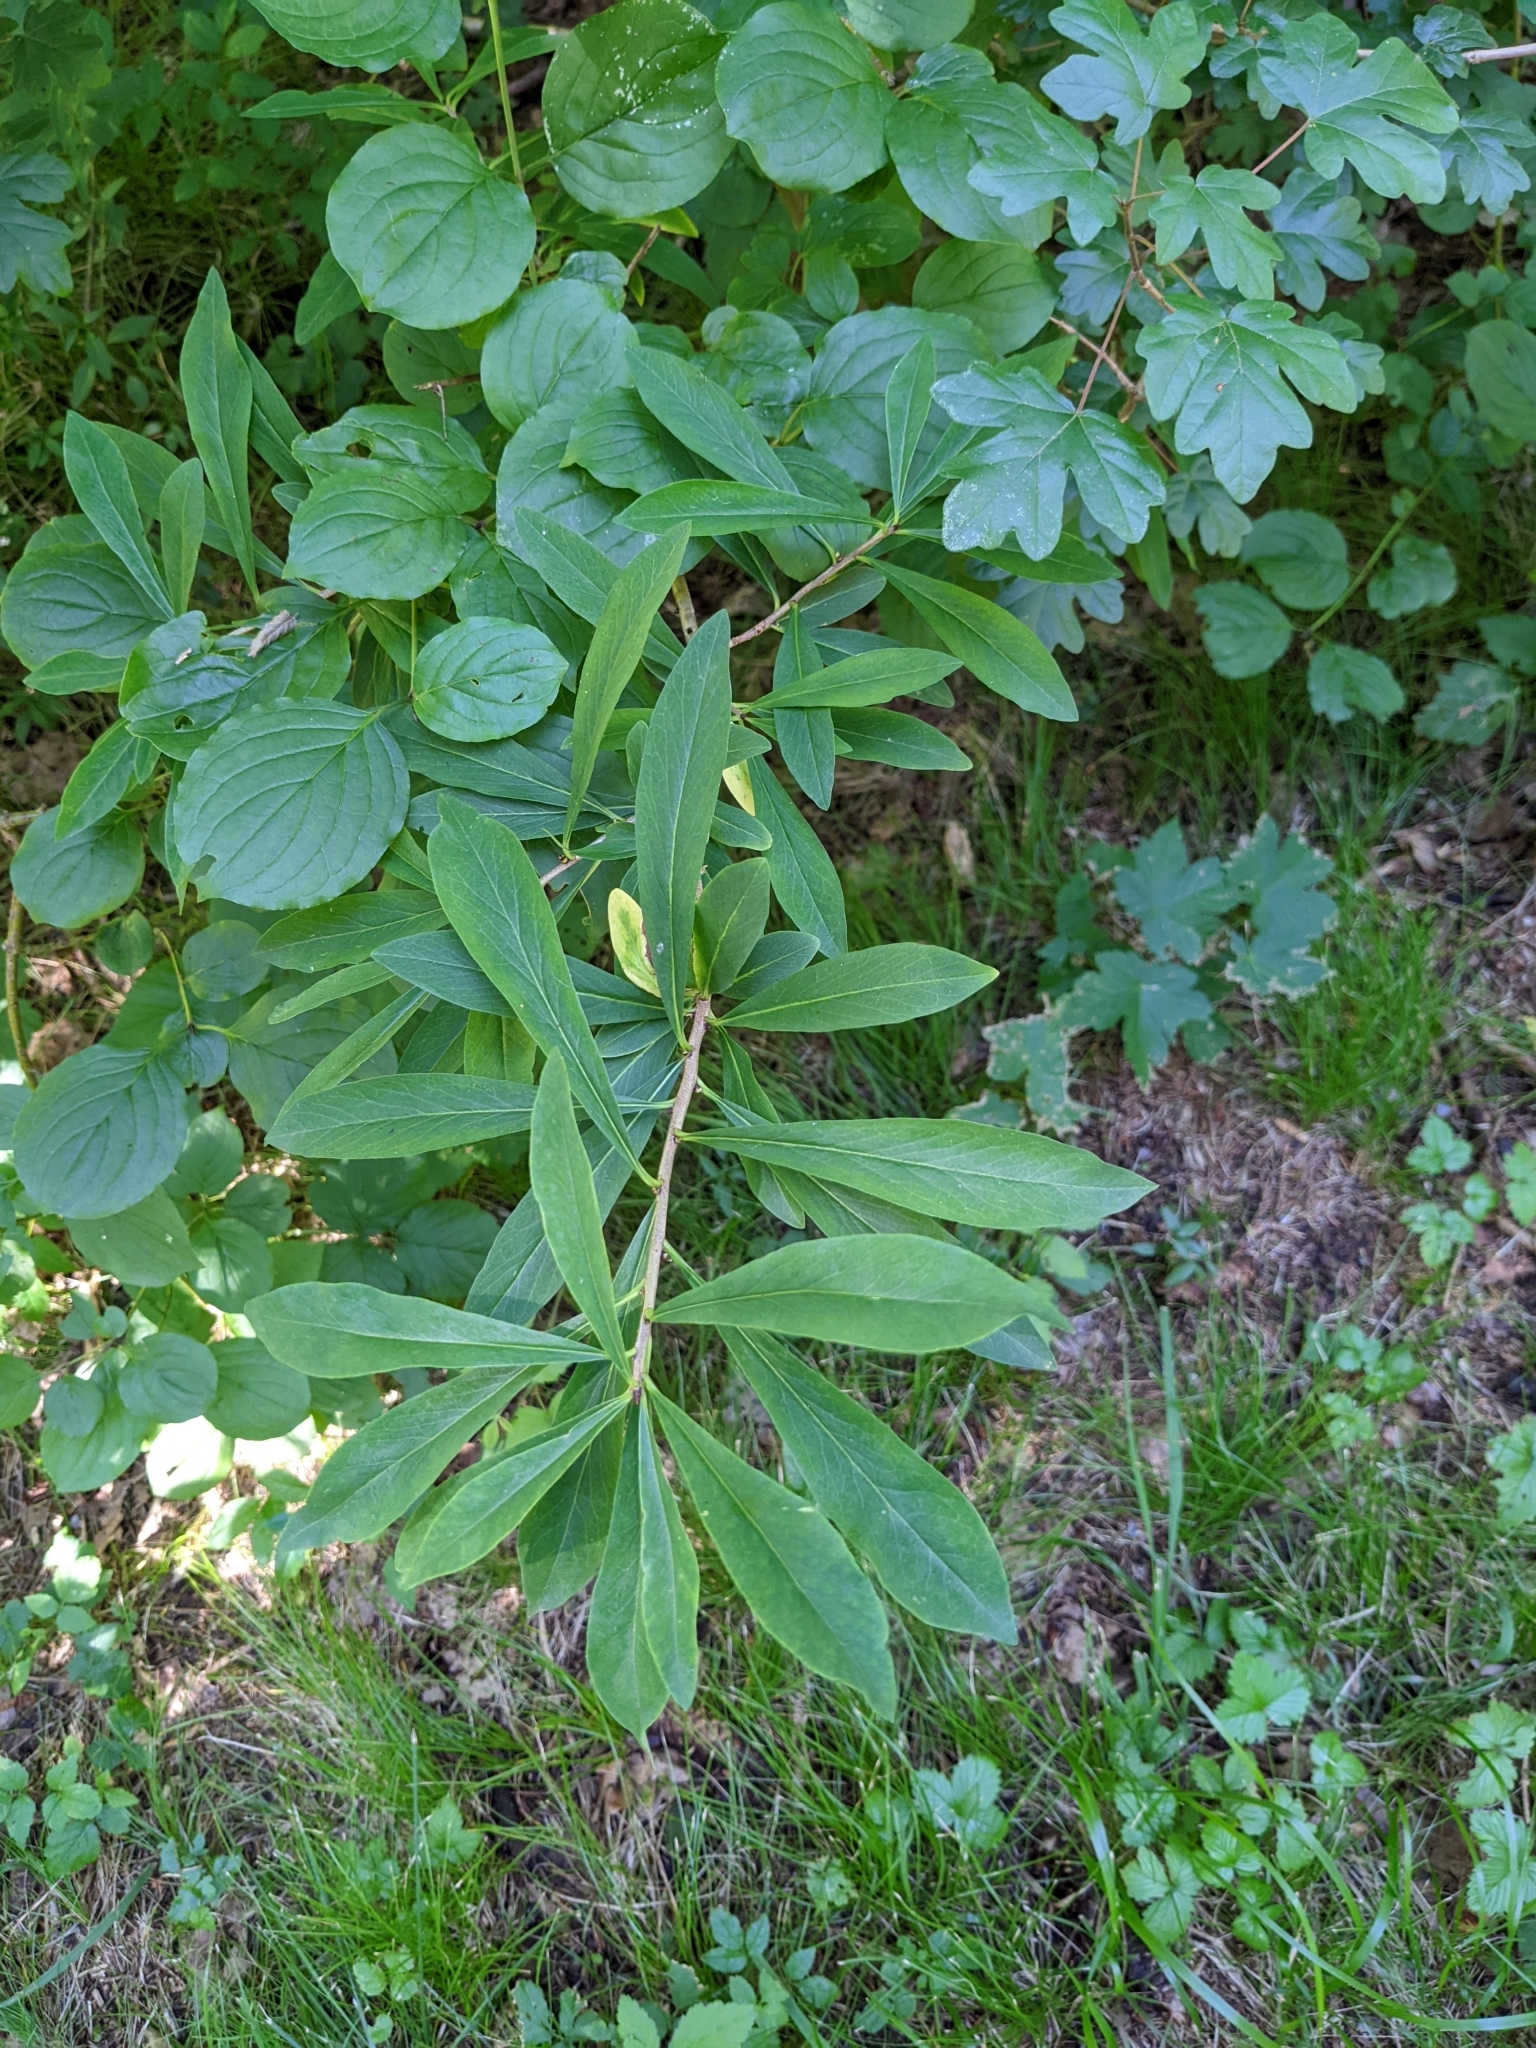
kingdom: Plantae
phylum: Tracheophyta
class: Magnoliopsida
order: Malvales
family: Thymelaeaceae
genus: Daphne
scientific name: Daphne mezereum
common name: Mezereon
